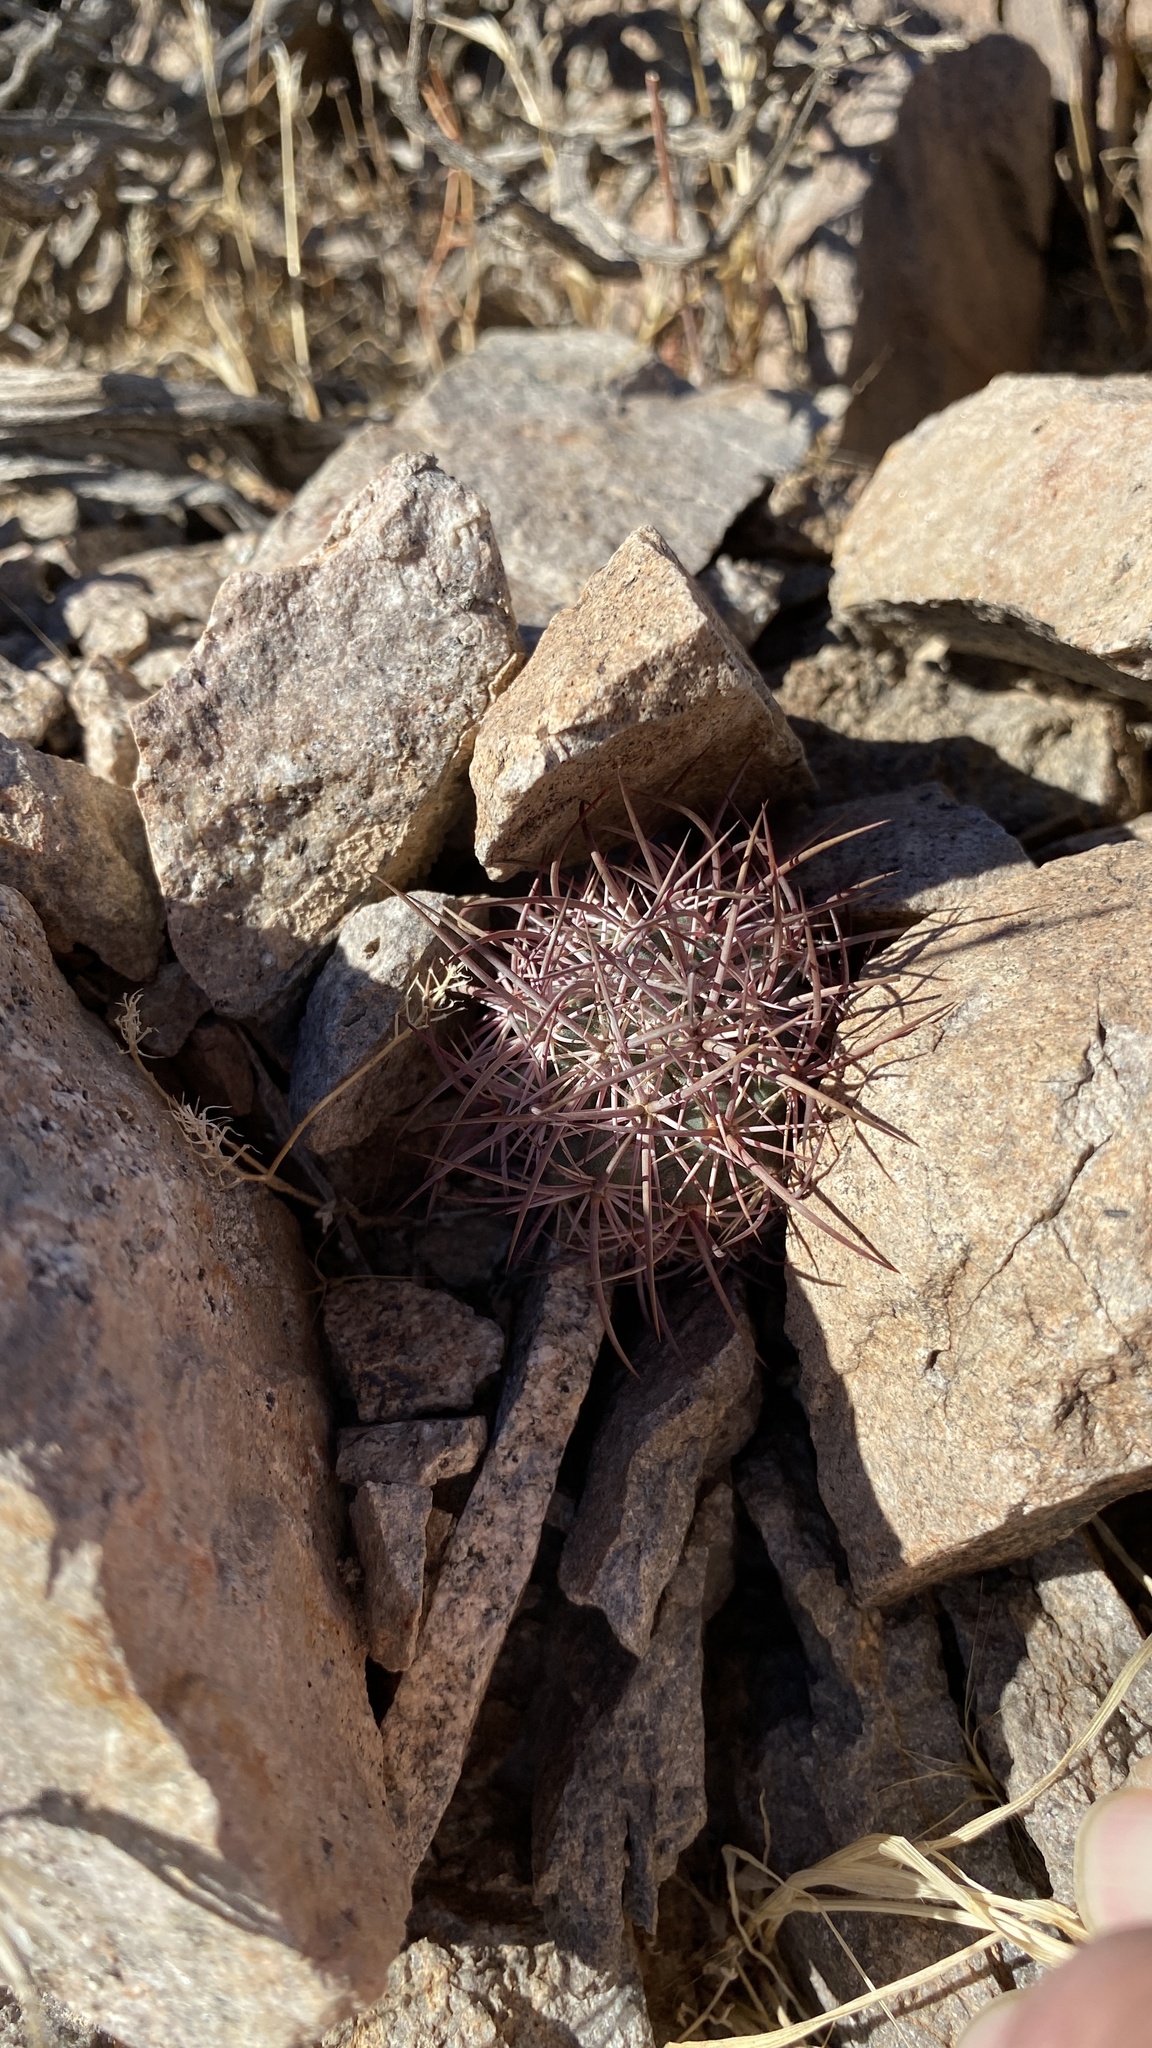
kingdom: Plantae
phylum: Tracheophyta
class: Magnoliopsida
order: Caryophyllales
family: Cactaceae
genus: Sclerocactus
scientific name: Sclerocactus johnsonii
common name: Eight-spine fishhook cactus
